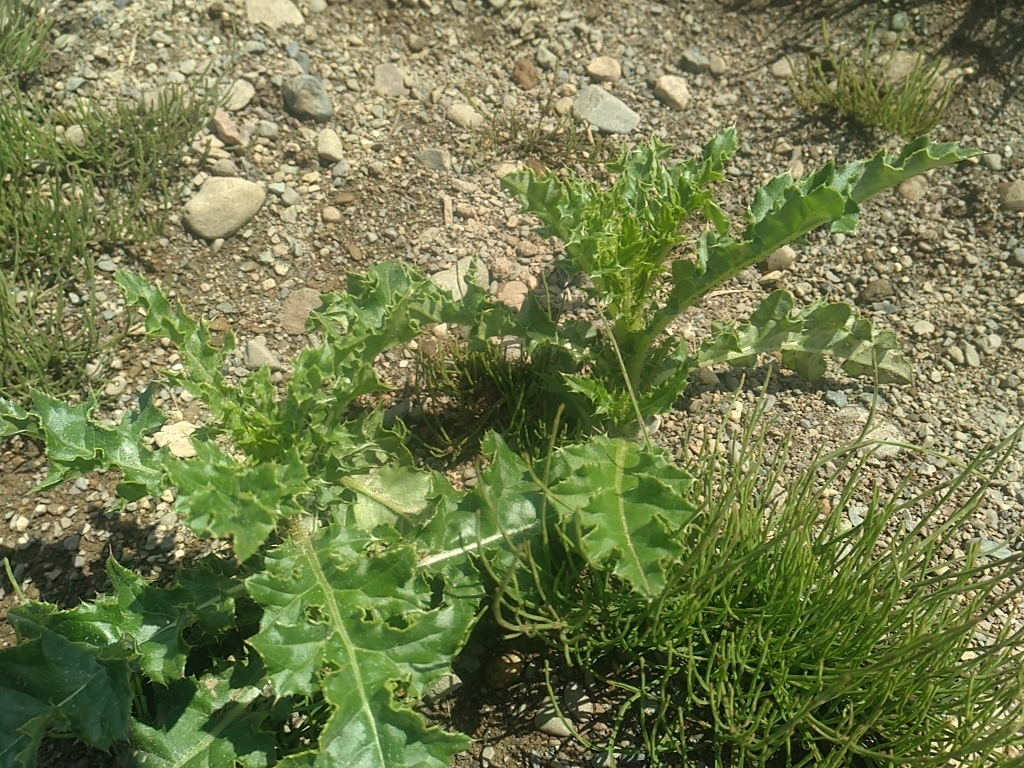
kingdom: Plantae
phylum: Tracheophyta
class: Magnoliopsida
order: Asterales
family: Asteraceae
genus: Cirsium
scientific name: Cirsium arvense
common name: Creeping thistle
